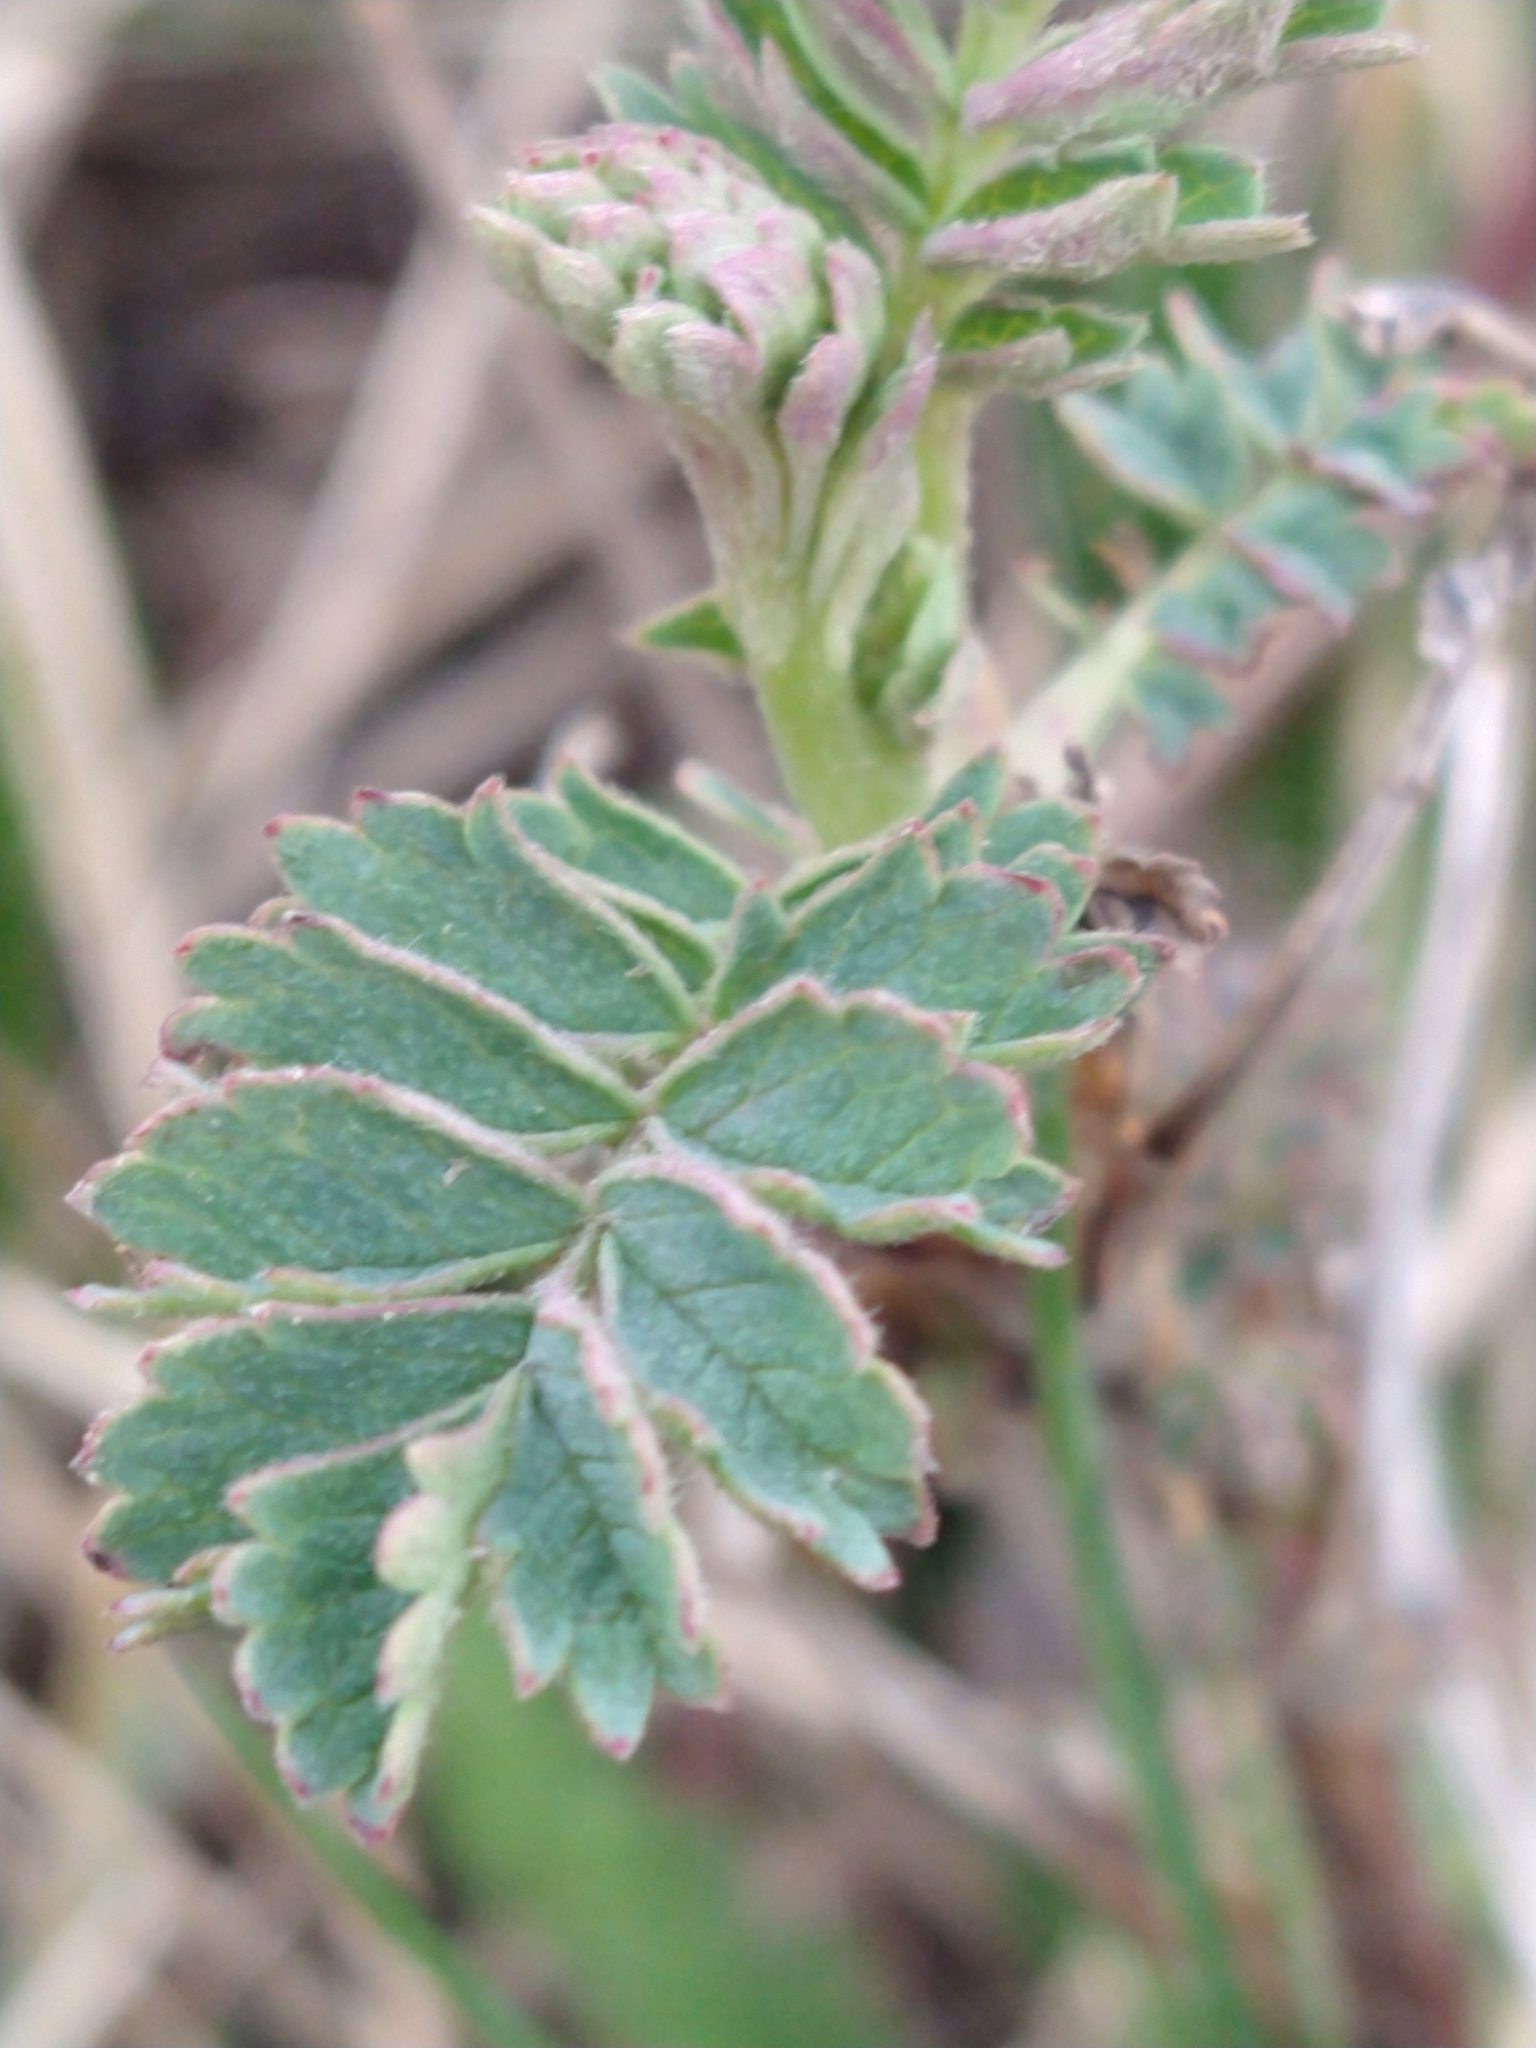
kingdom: Plantae
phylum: Tracheophyta
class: Magnoliopsida
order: Rosales
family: Rosaceae
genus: Acaena
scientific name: Acaena magellanica
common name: New zealand burr
